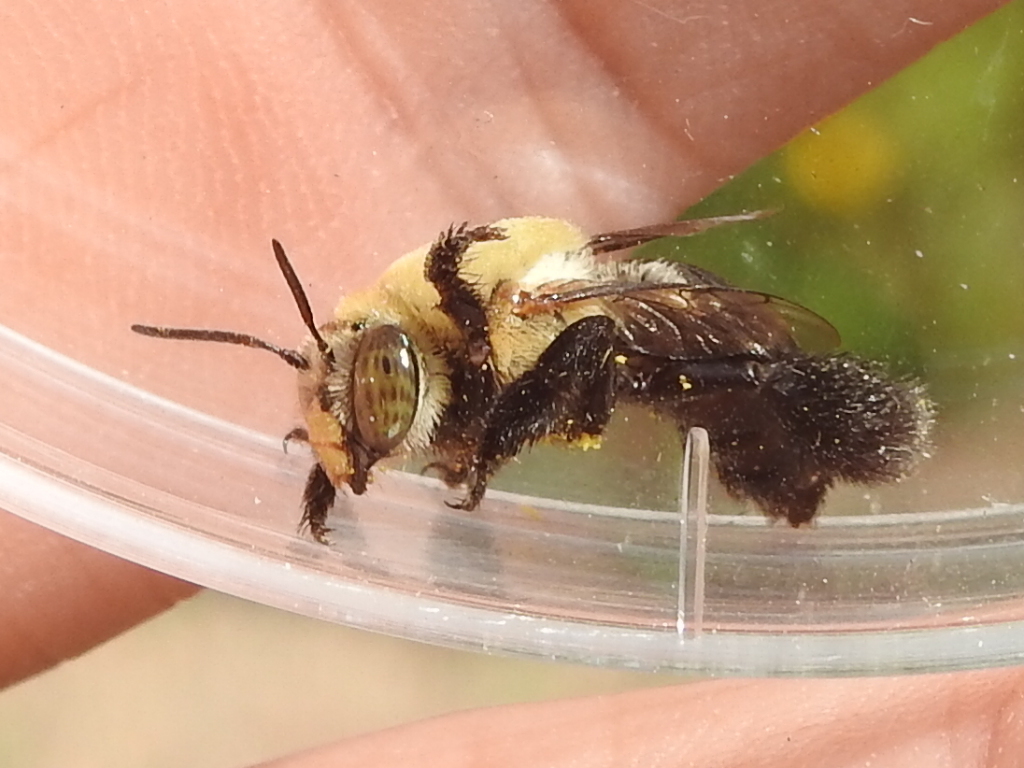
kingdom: Animalia
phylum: Arthropoda
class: Insecta
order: Hymenoptera
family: Apidae
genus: Centris
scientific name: Centris atripes
